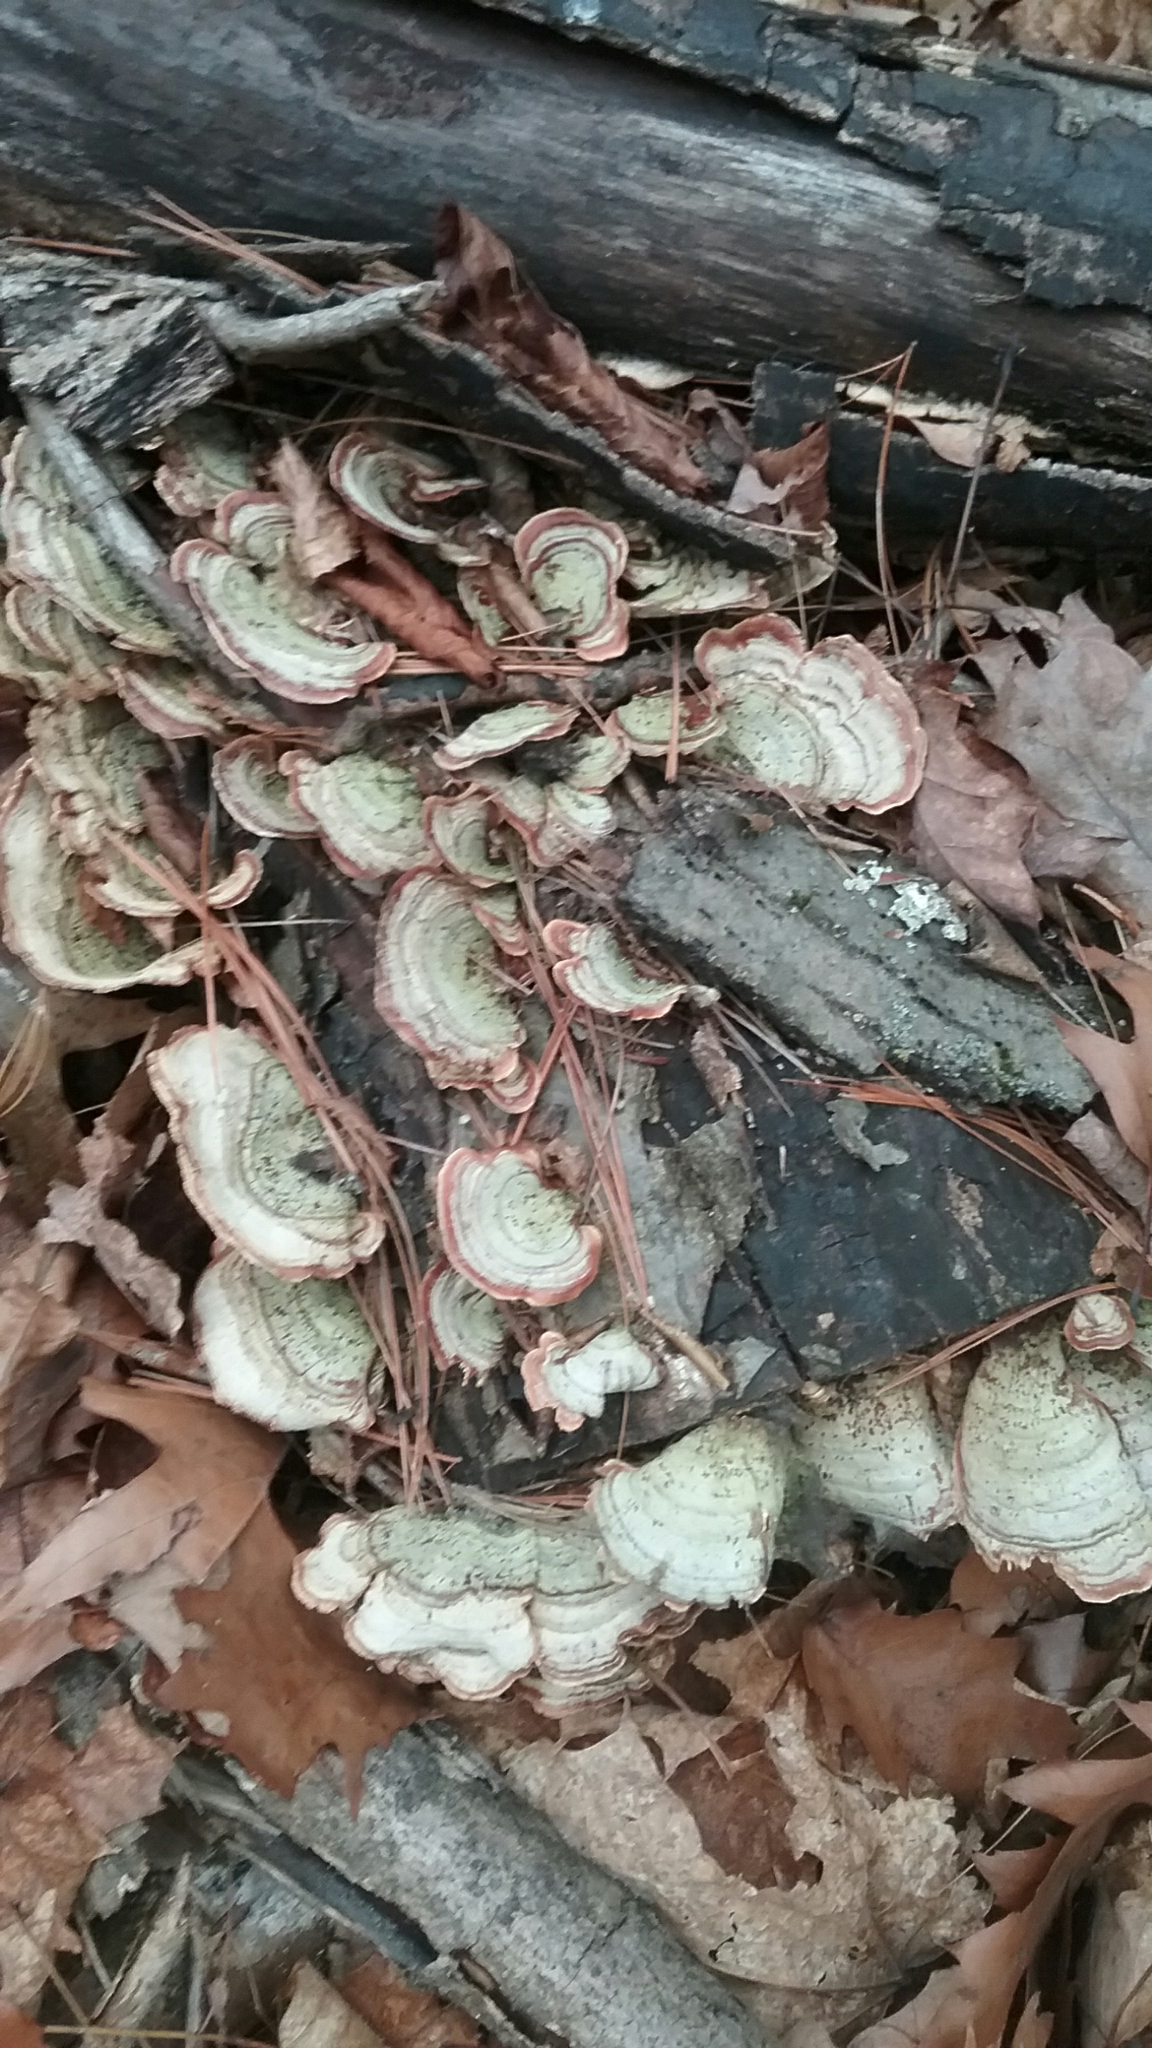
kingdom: Fungi
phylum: Basidiomycota
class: Agaricomycetes
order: Polyporales
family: Polyporaceae
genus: Trametes
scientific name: Trametes versicolor
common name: Turkeytail
